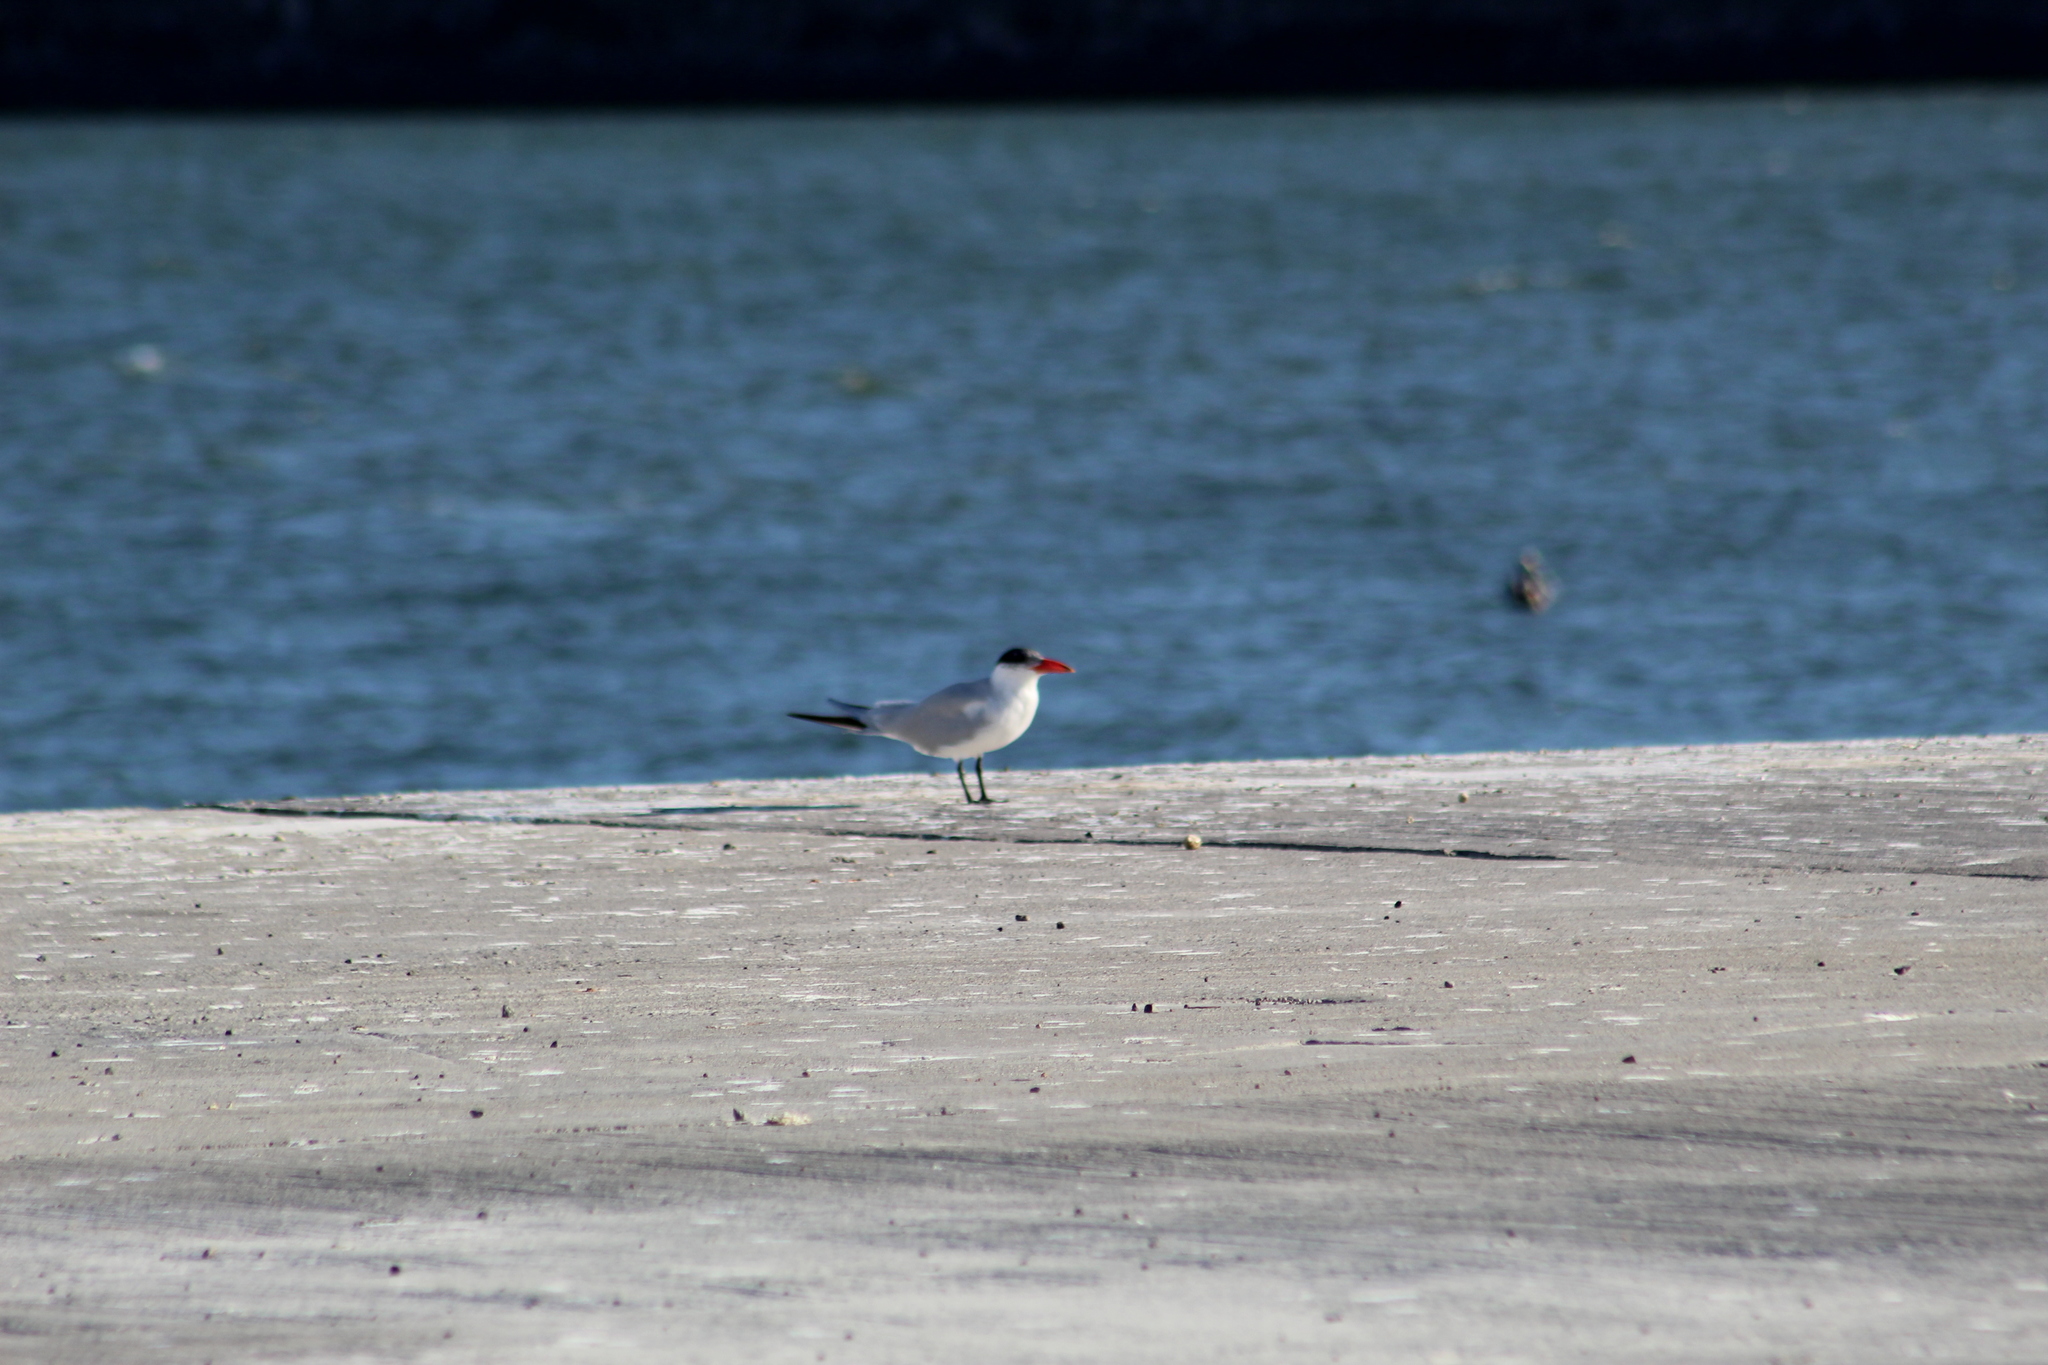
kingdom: Animalia
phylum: Chordata
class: Aves
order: Charadriiformes
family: Laridae
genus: Hydroprogne
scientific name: Hydroprogne caspia
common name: Caspian tern
